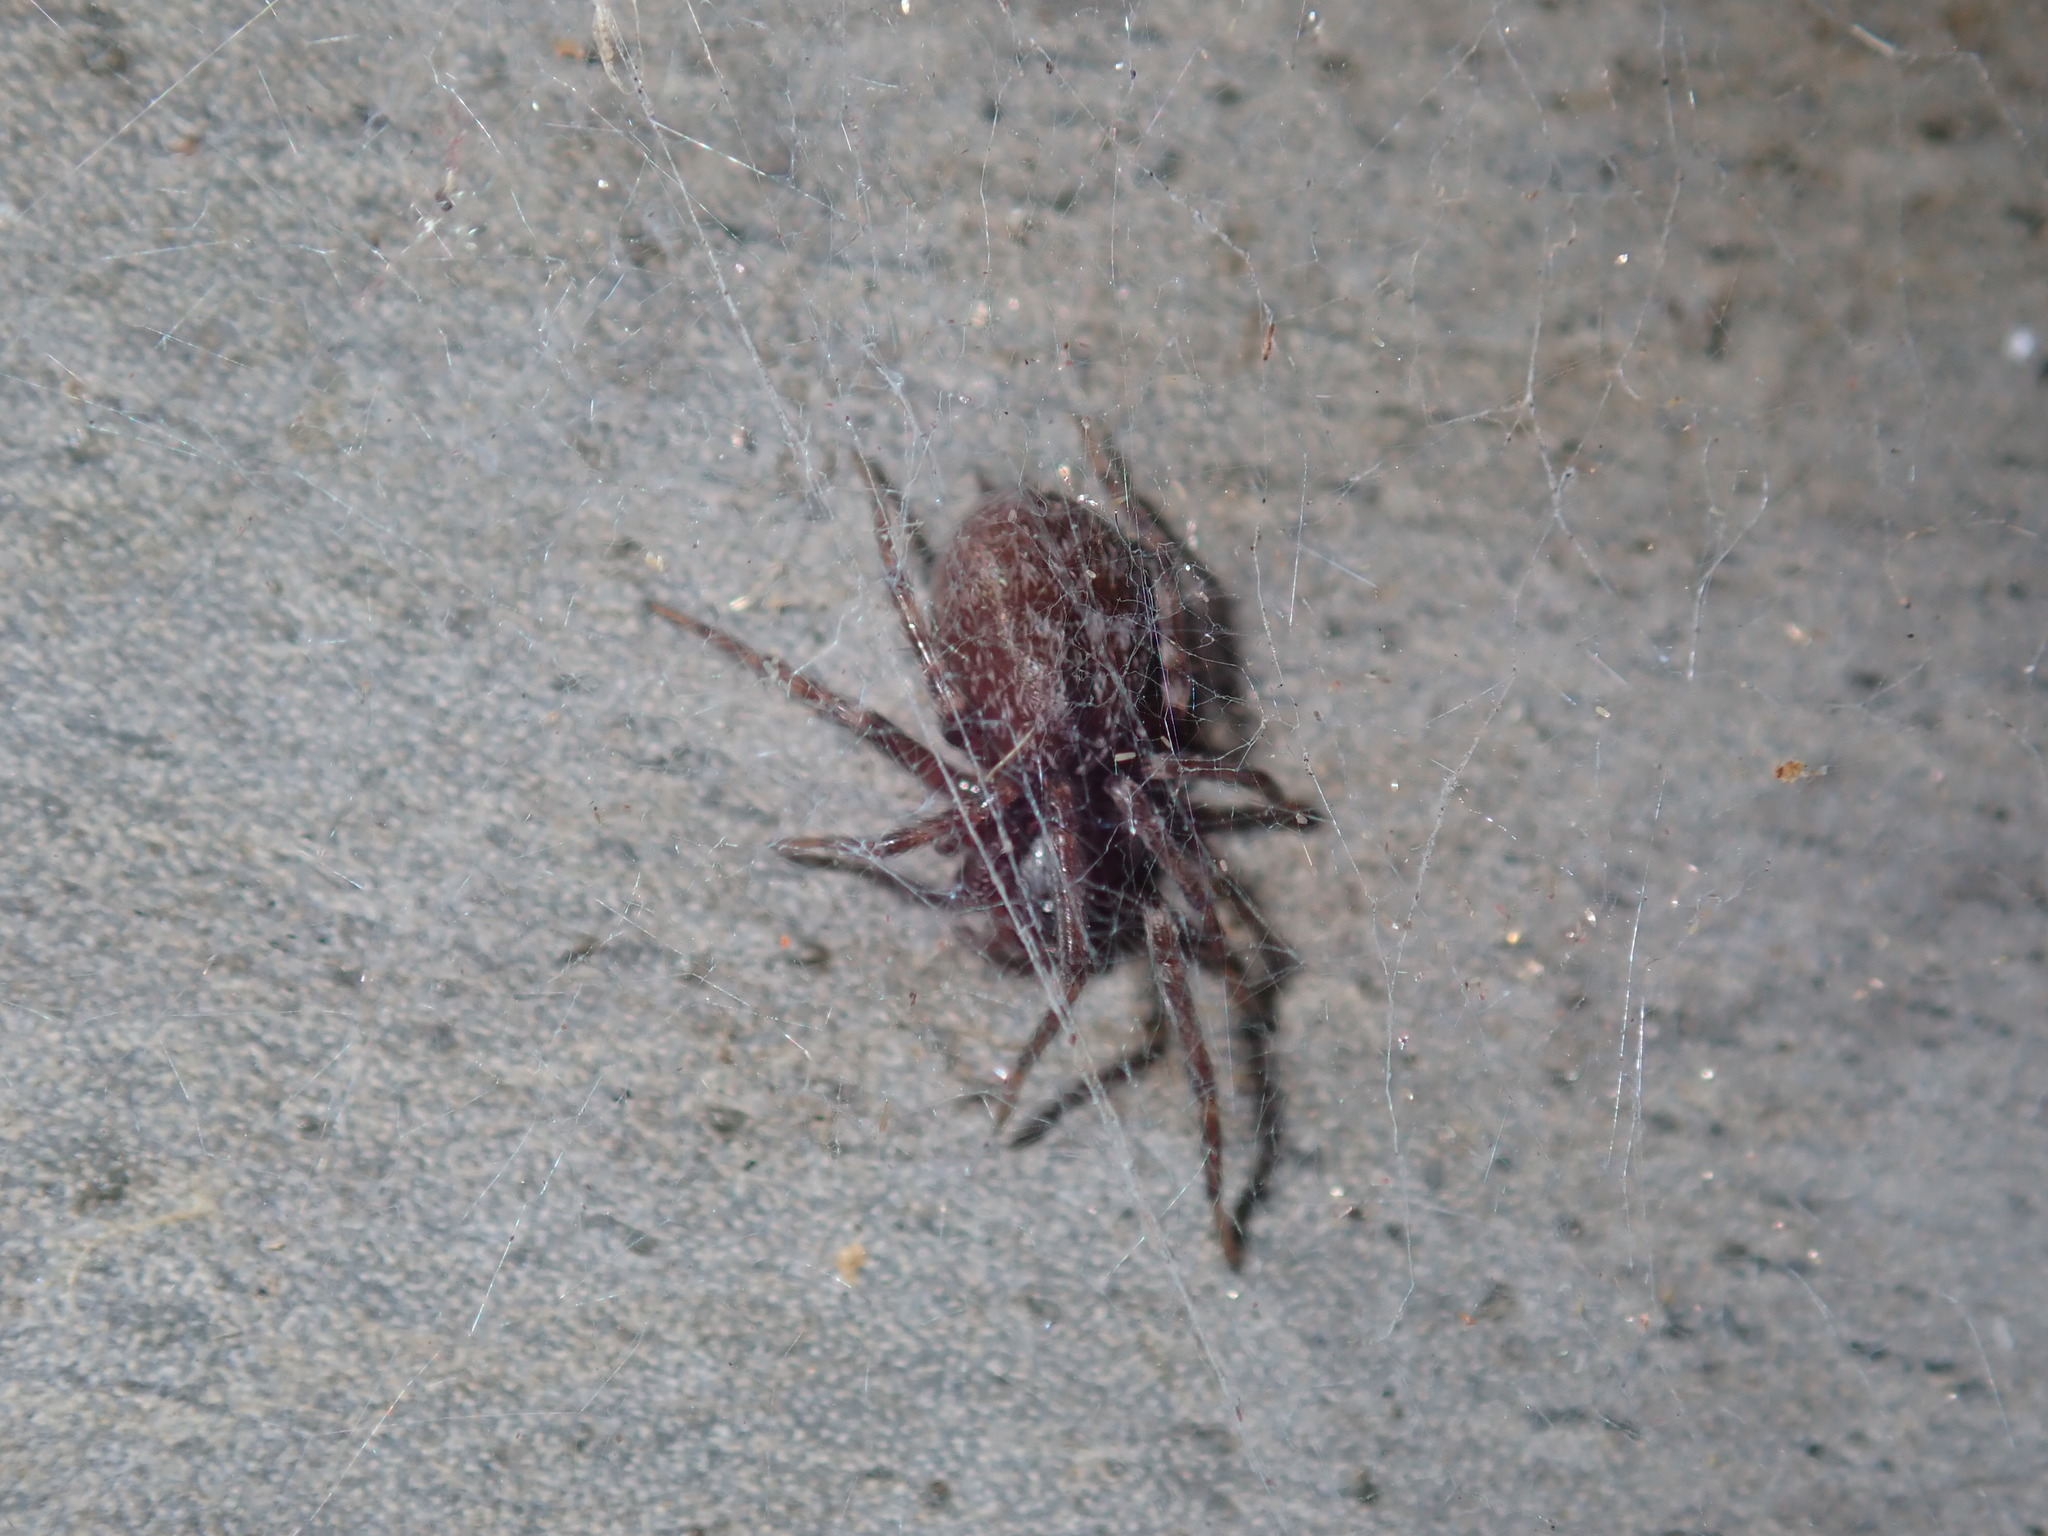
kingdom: Animalia
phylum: Arthropoda
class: Arachnida
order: Araneae
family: Desidae
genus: Badumna
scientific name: Badumna longinqua
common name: Gray house spider
